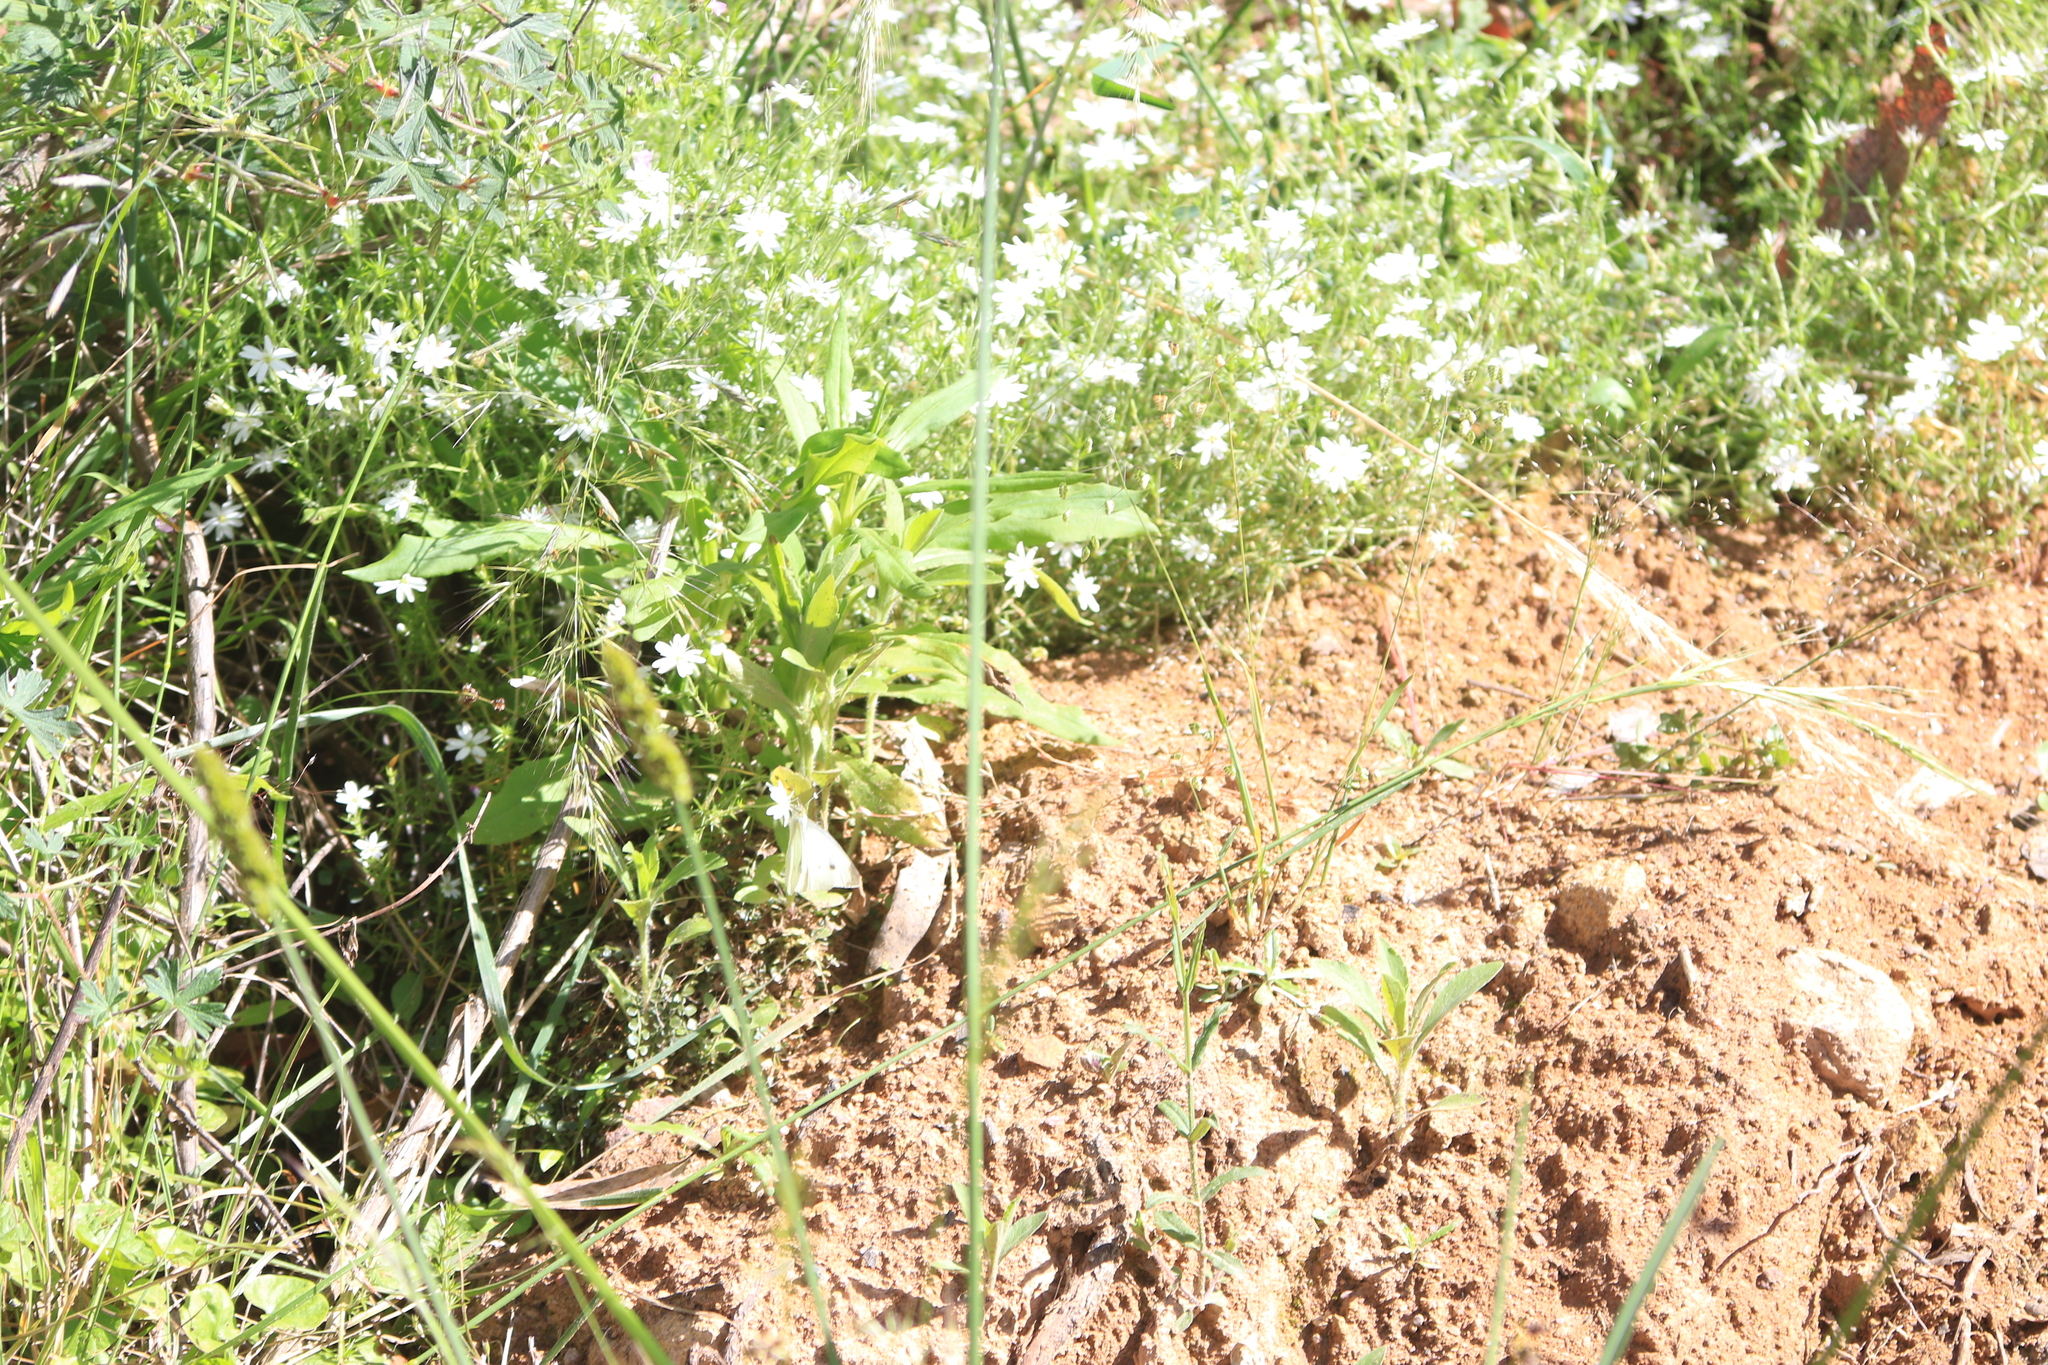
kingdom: Plantae
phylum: Tracheophyta
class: Magnoliopsida
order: Caryophyllales
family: Caryophyllaceae
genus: Stellaria
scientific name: Stellaria pungens
